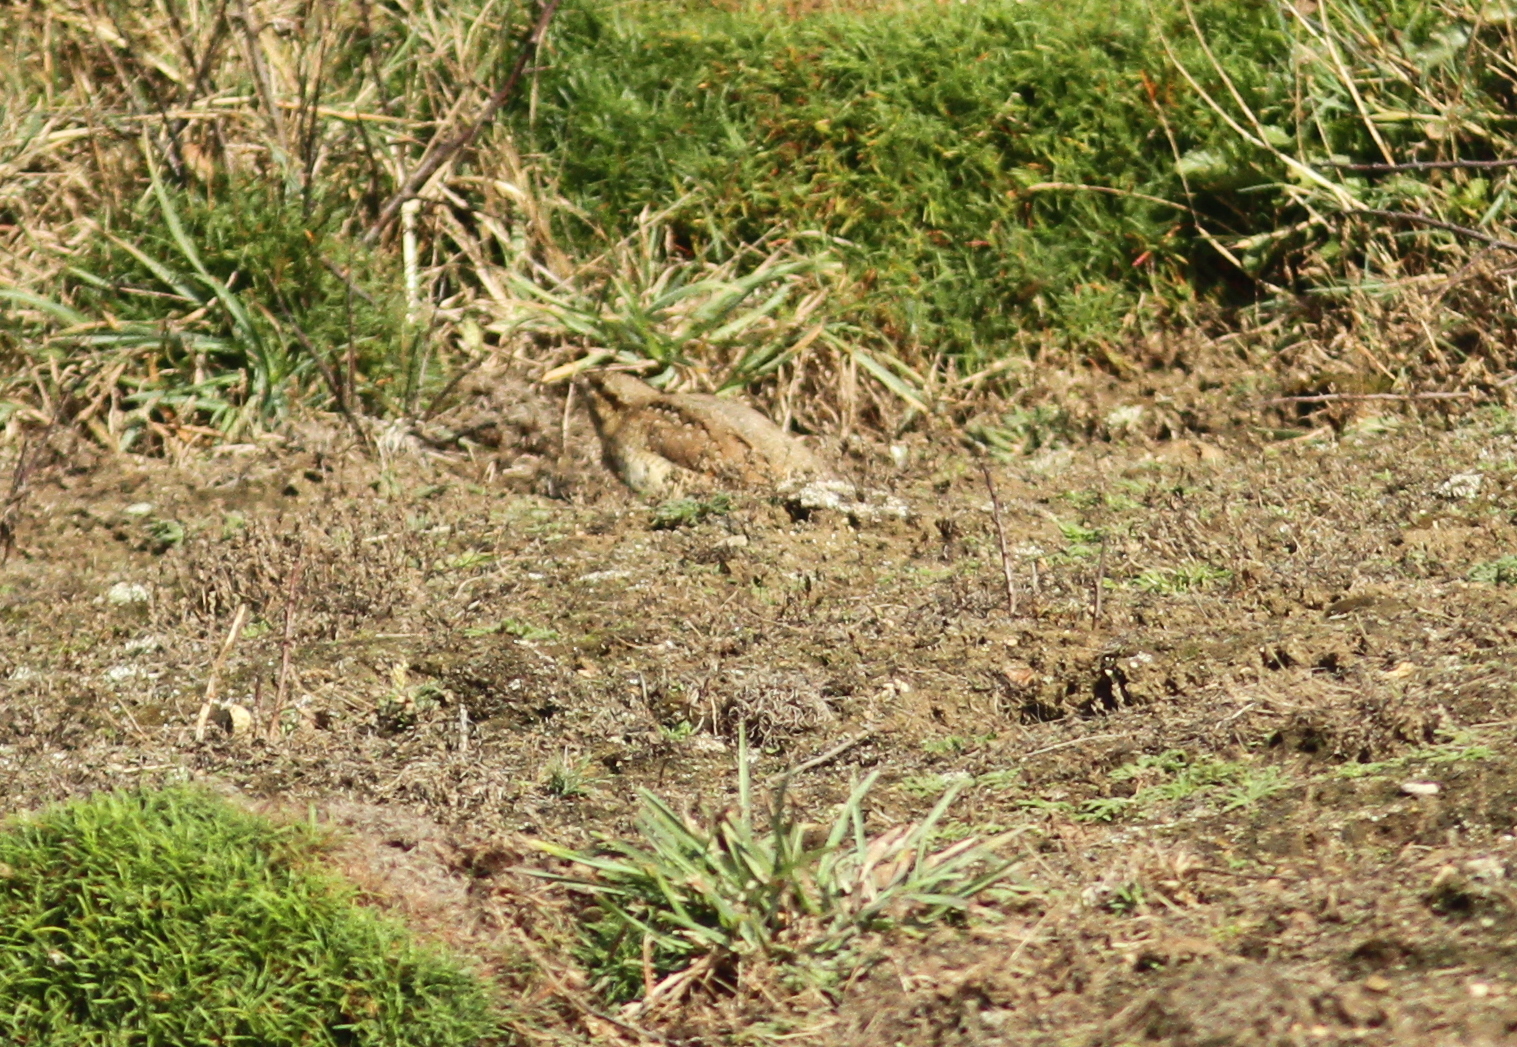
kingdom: Animalia
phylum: Chordata
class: Aves
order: Piciformes
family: Picidae
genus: Jynx
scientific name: Jynx torquilla
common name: Eurasian wryneck
